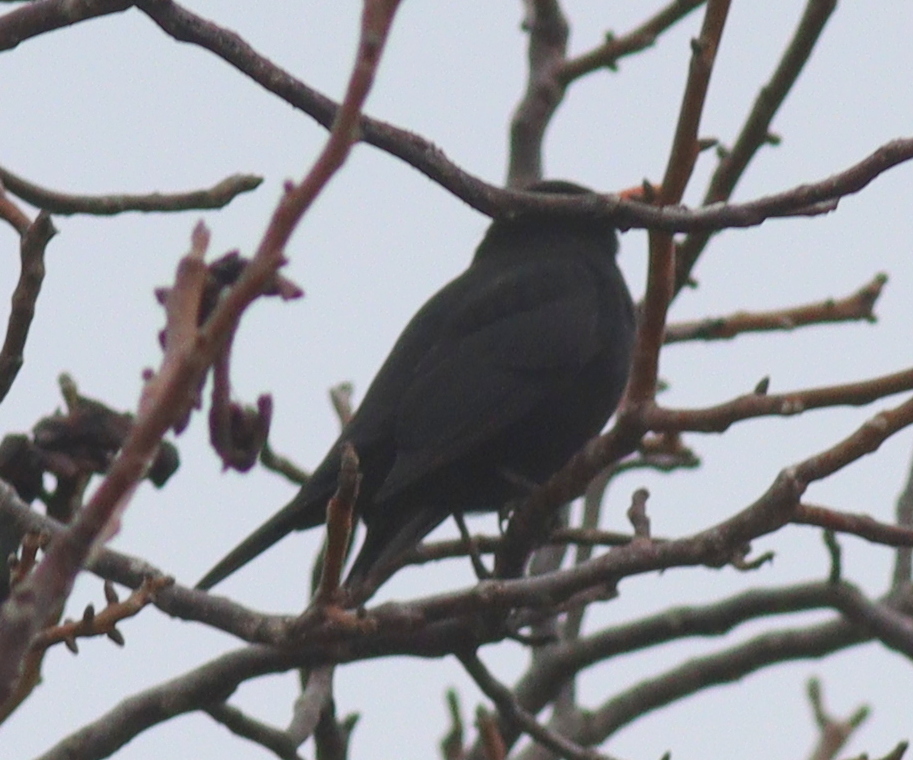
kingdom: Animalia
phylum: Chordata
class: Aves
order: Passeriformes
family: Turdidae
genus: Turdus
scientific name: Turdus merula
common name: Common blackbird
